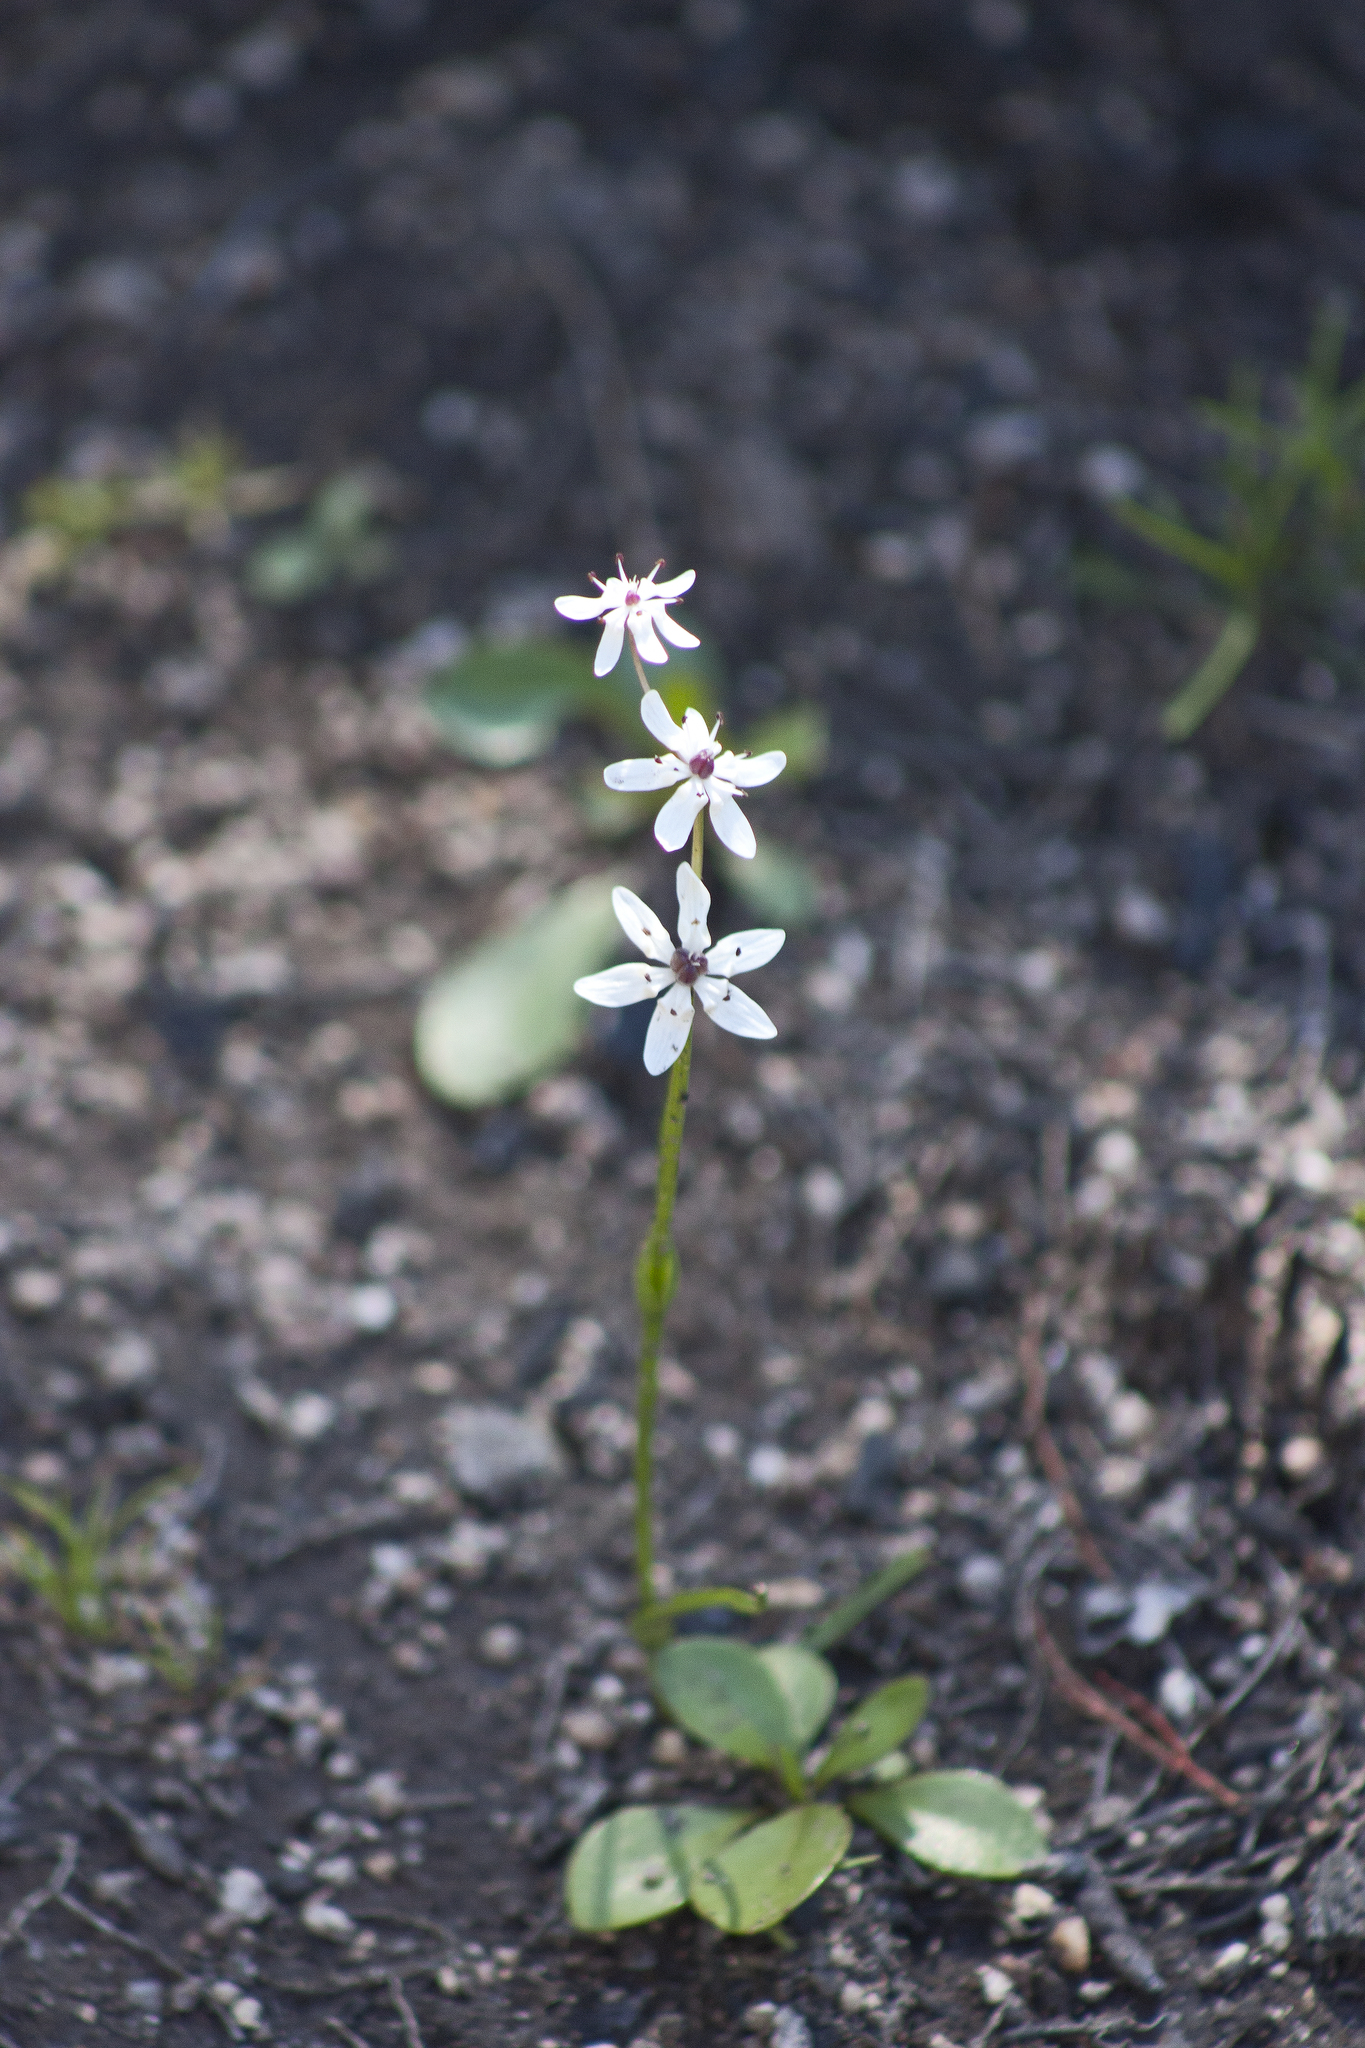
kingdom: Plantae
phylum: Tracheophyta
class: Liliopsida
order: Liliales
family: Colchicaceae
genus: Wurmbea
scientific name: Wurmbea biglandulosa
